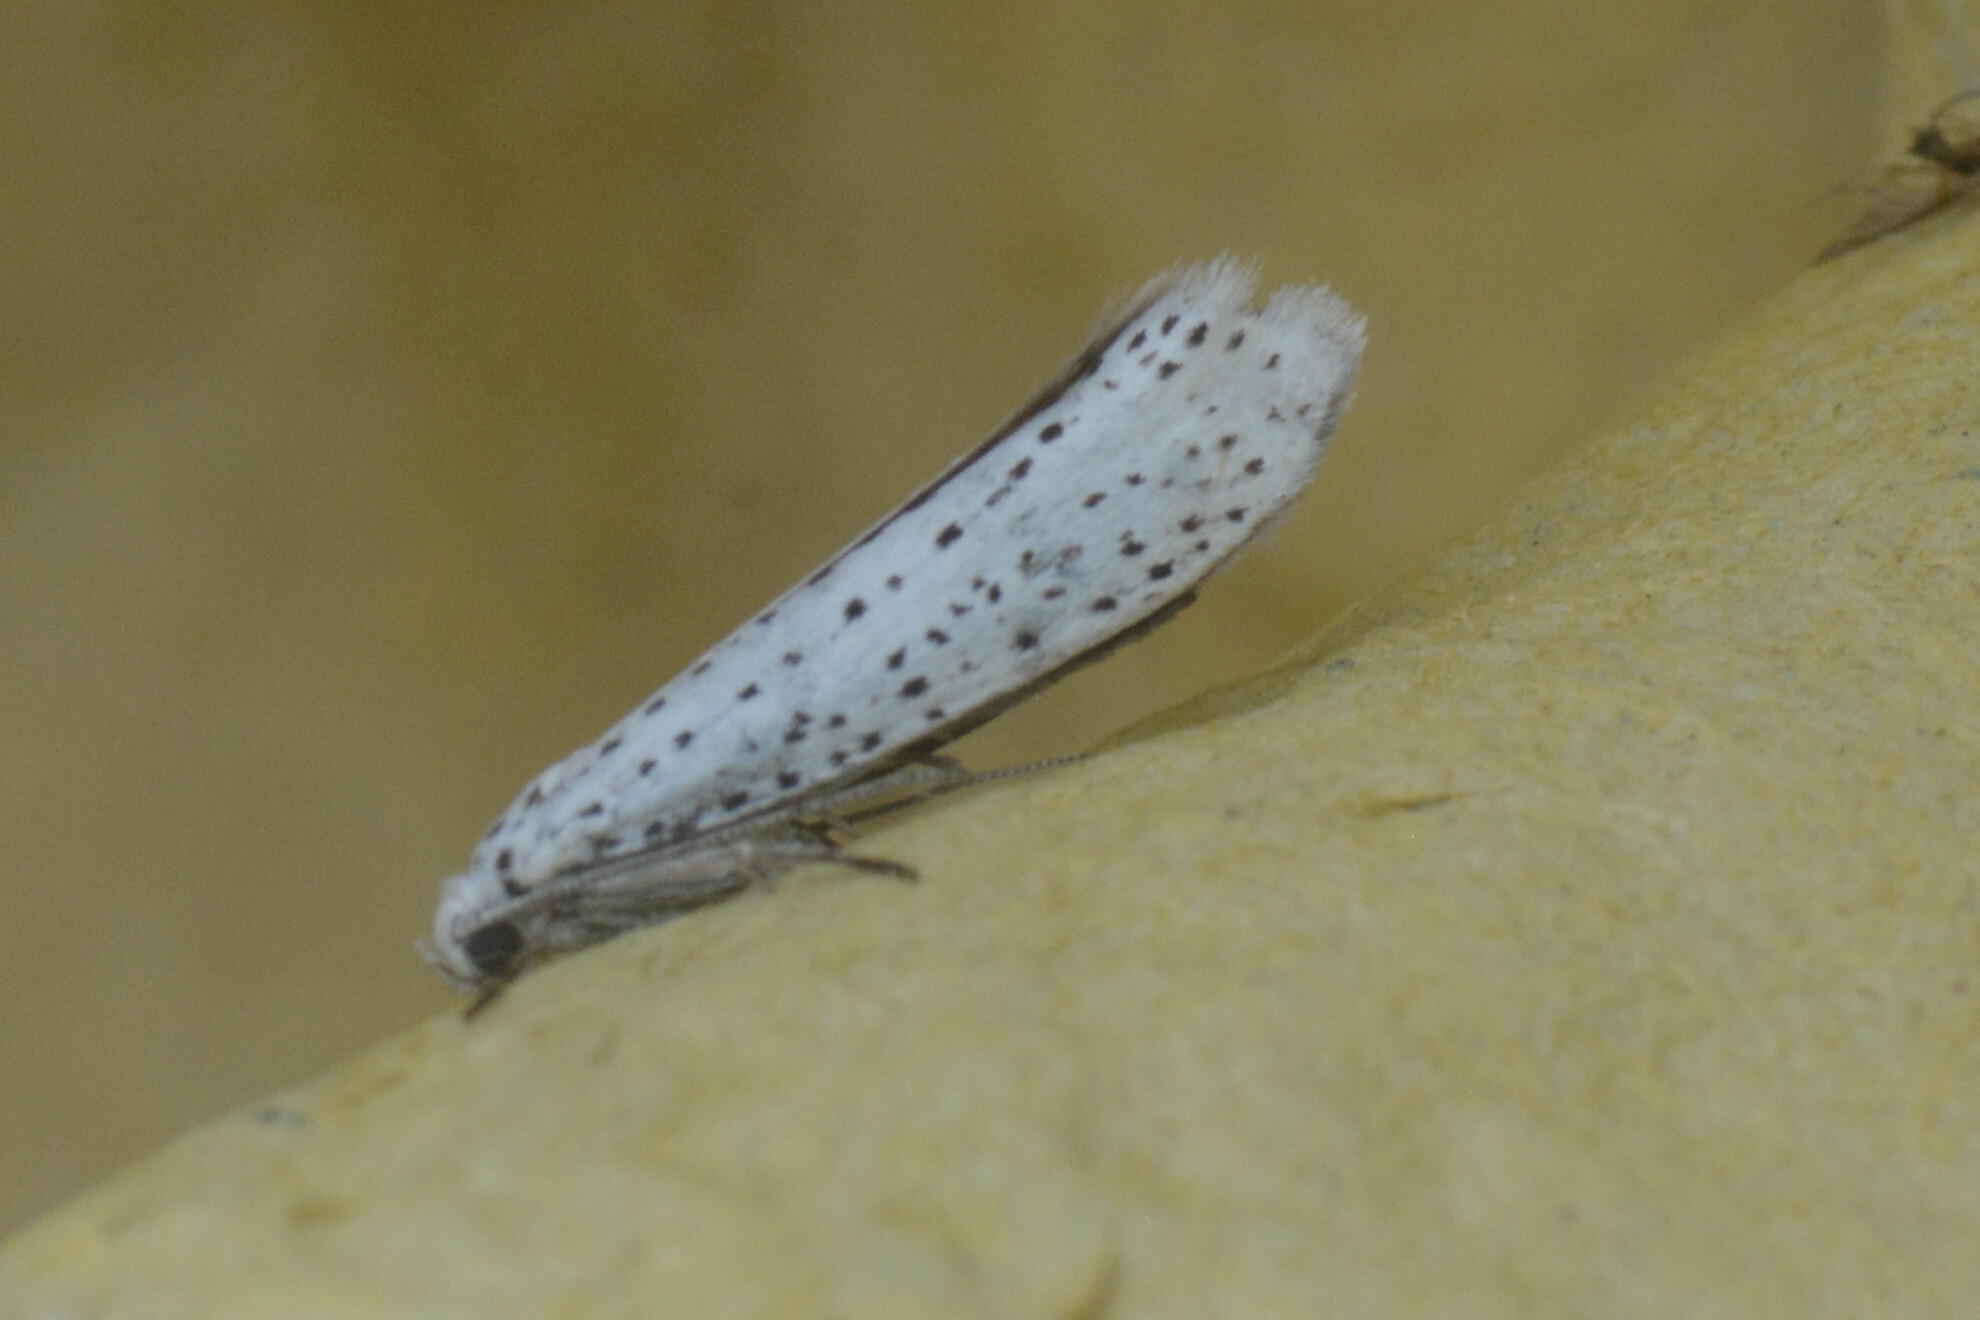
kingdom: Animalia
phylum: Arthropoda
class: Insecta
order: Lepidoptera
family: Yponomeutidae
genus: Yponomeuta
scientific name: Yponomeuta evonymella
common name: Bird-cherry ermine
